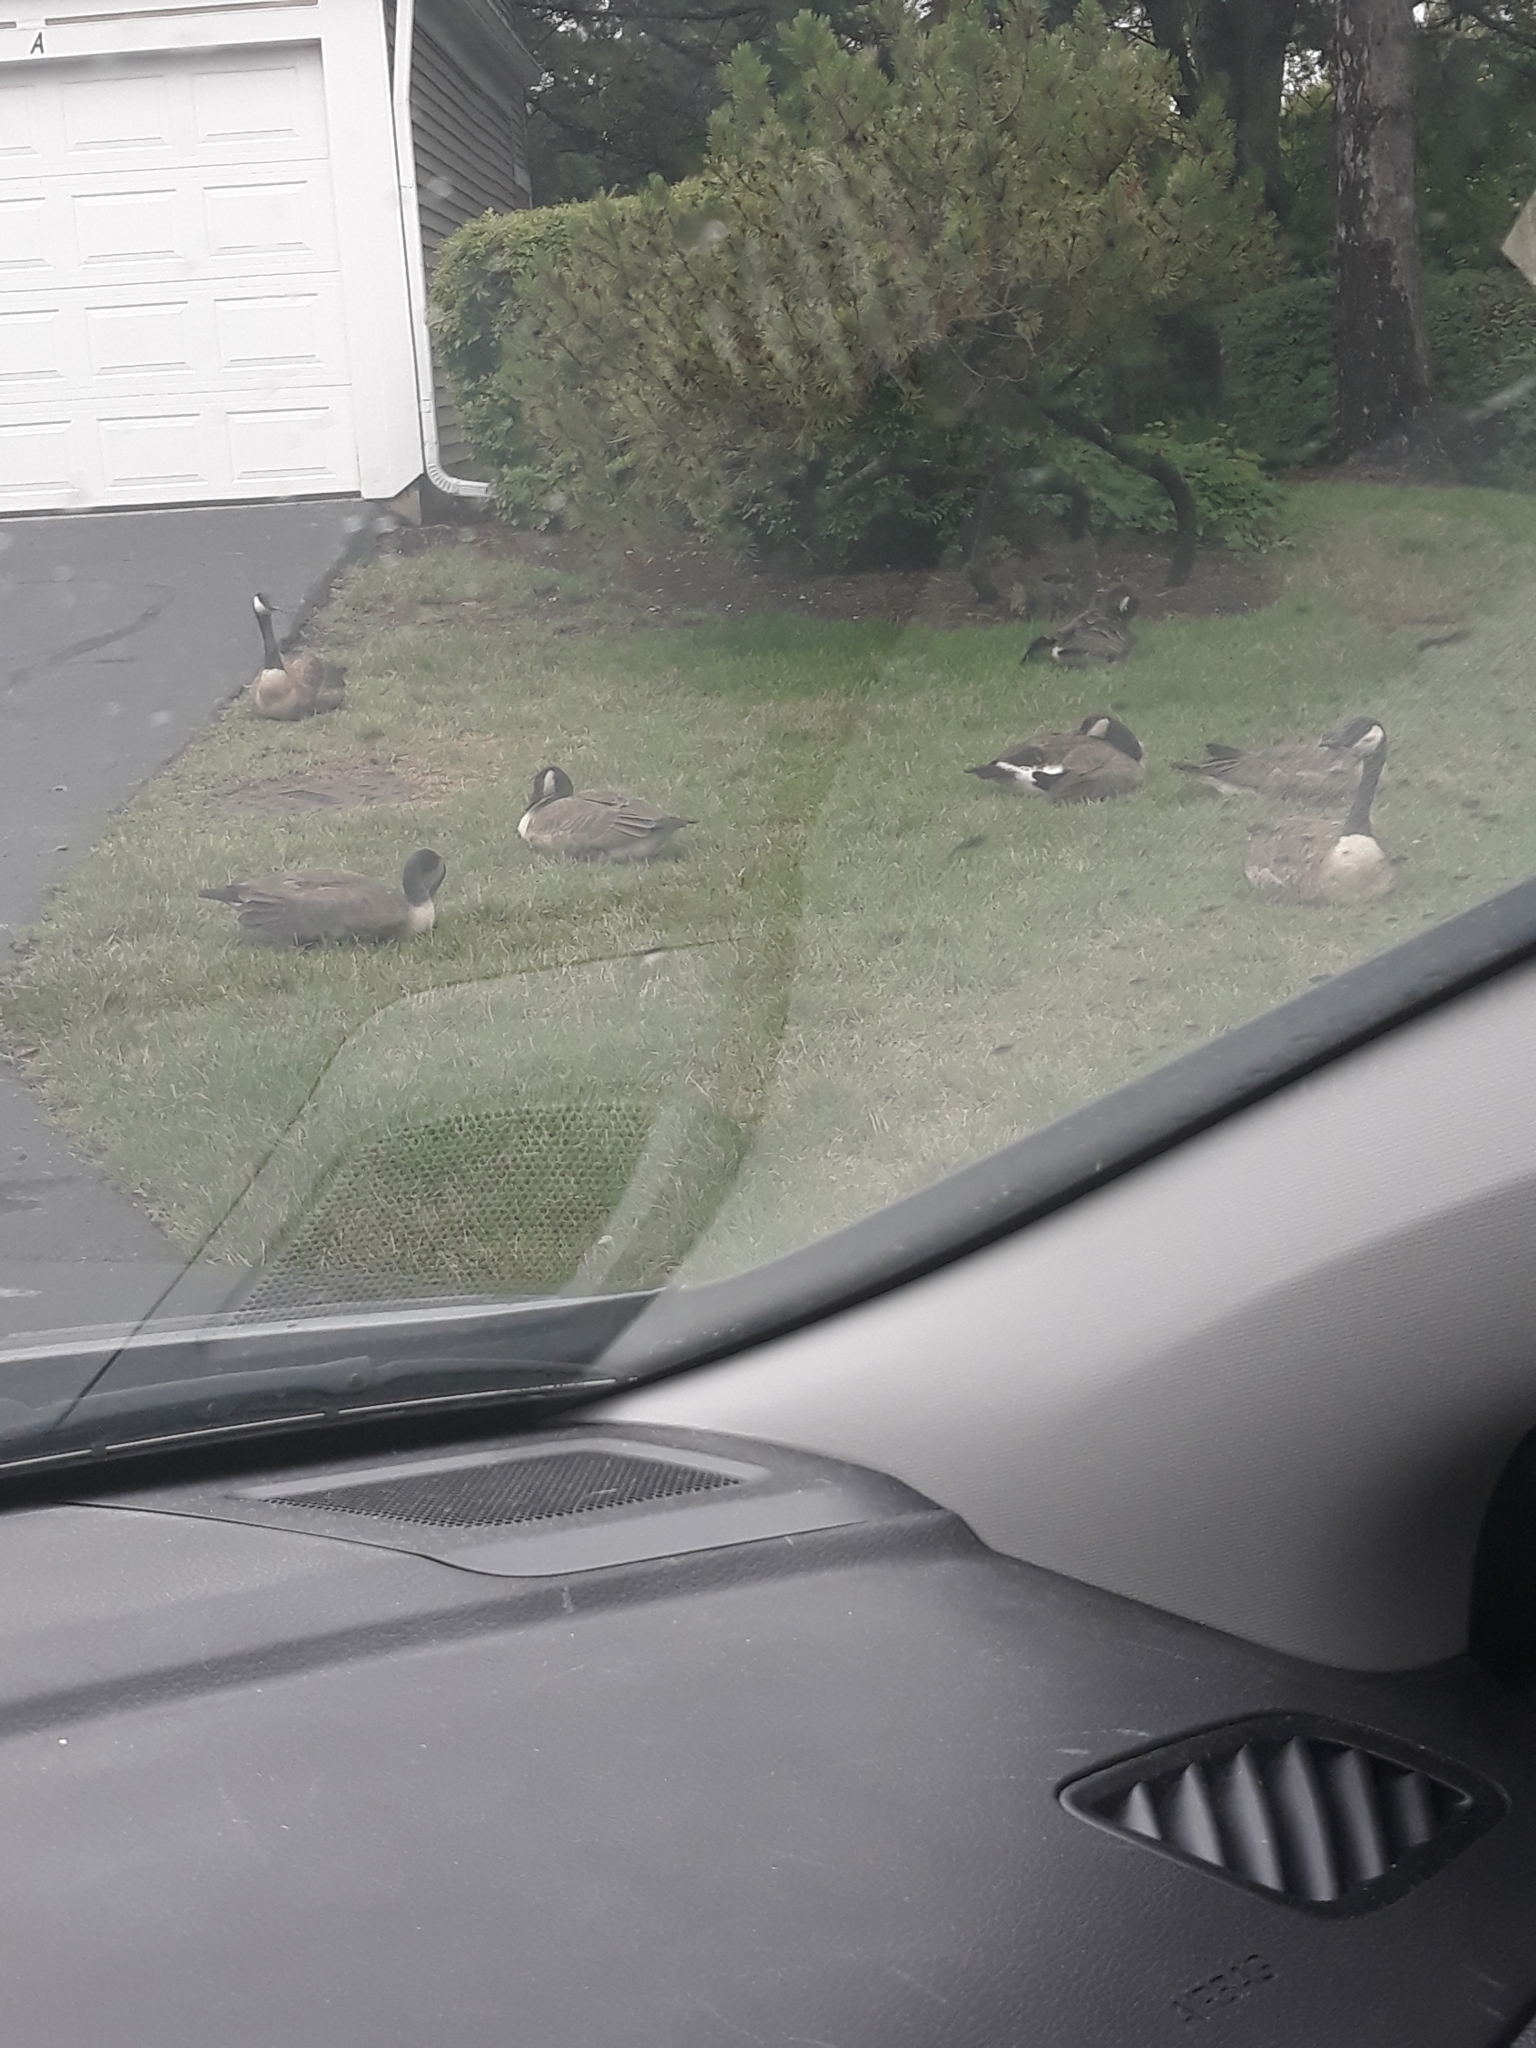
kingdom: Animalia
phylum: Chordata
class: Aves
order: Anseriformes
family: Anatidae
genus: Branta
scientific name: Branta canadensis
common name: Canada goose
